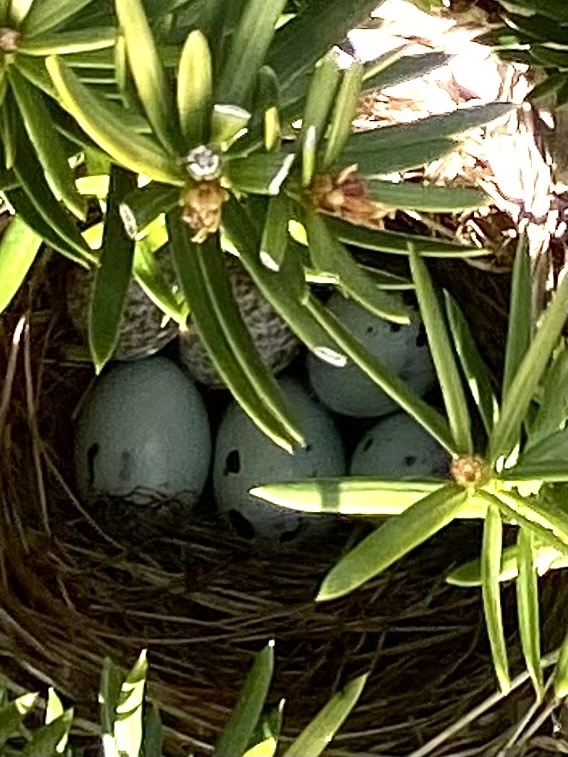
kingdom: Animalia
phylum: Chordata
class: Aves
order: Passeriformes
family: Icteridae
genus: Agelaius
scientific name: Agelaius phoeniceus
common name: Red-winged blackbird
